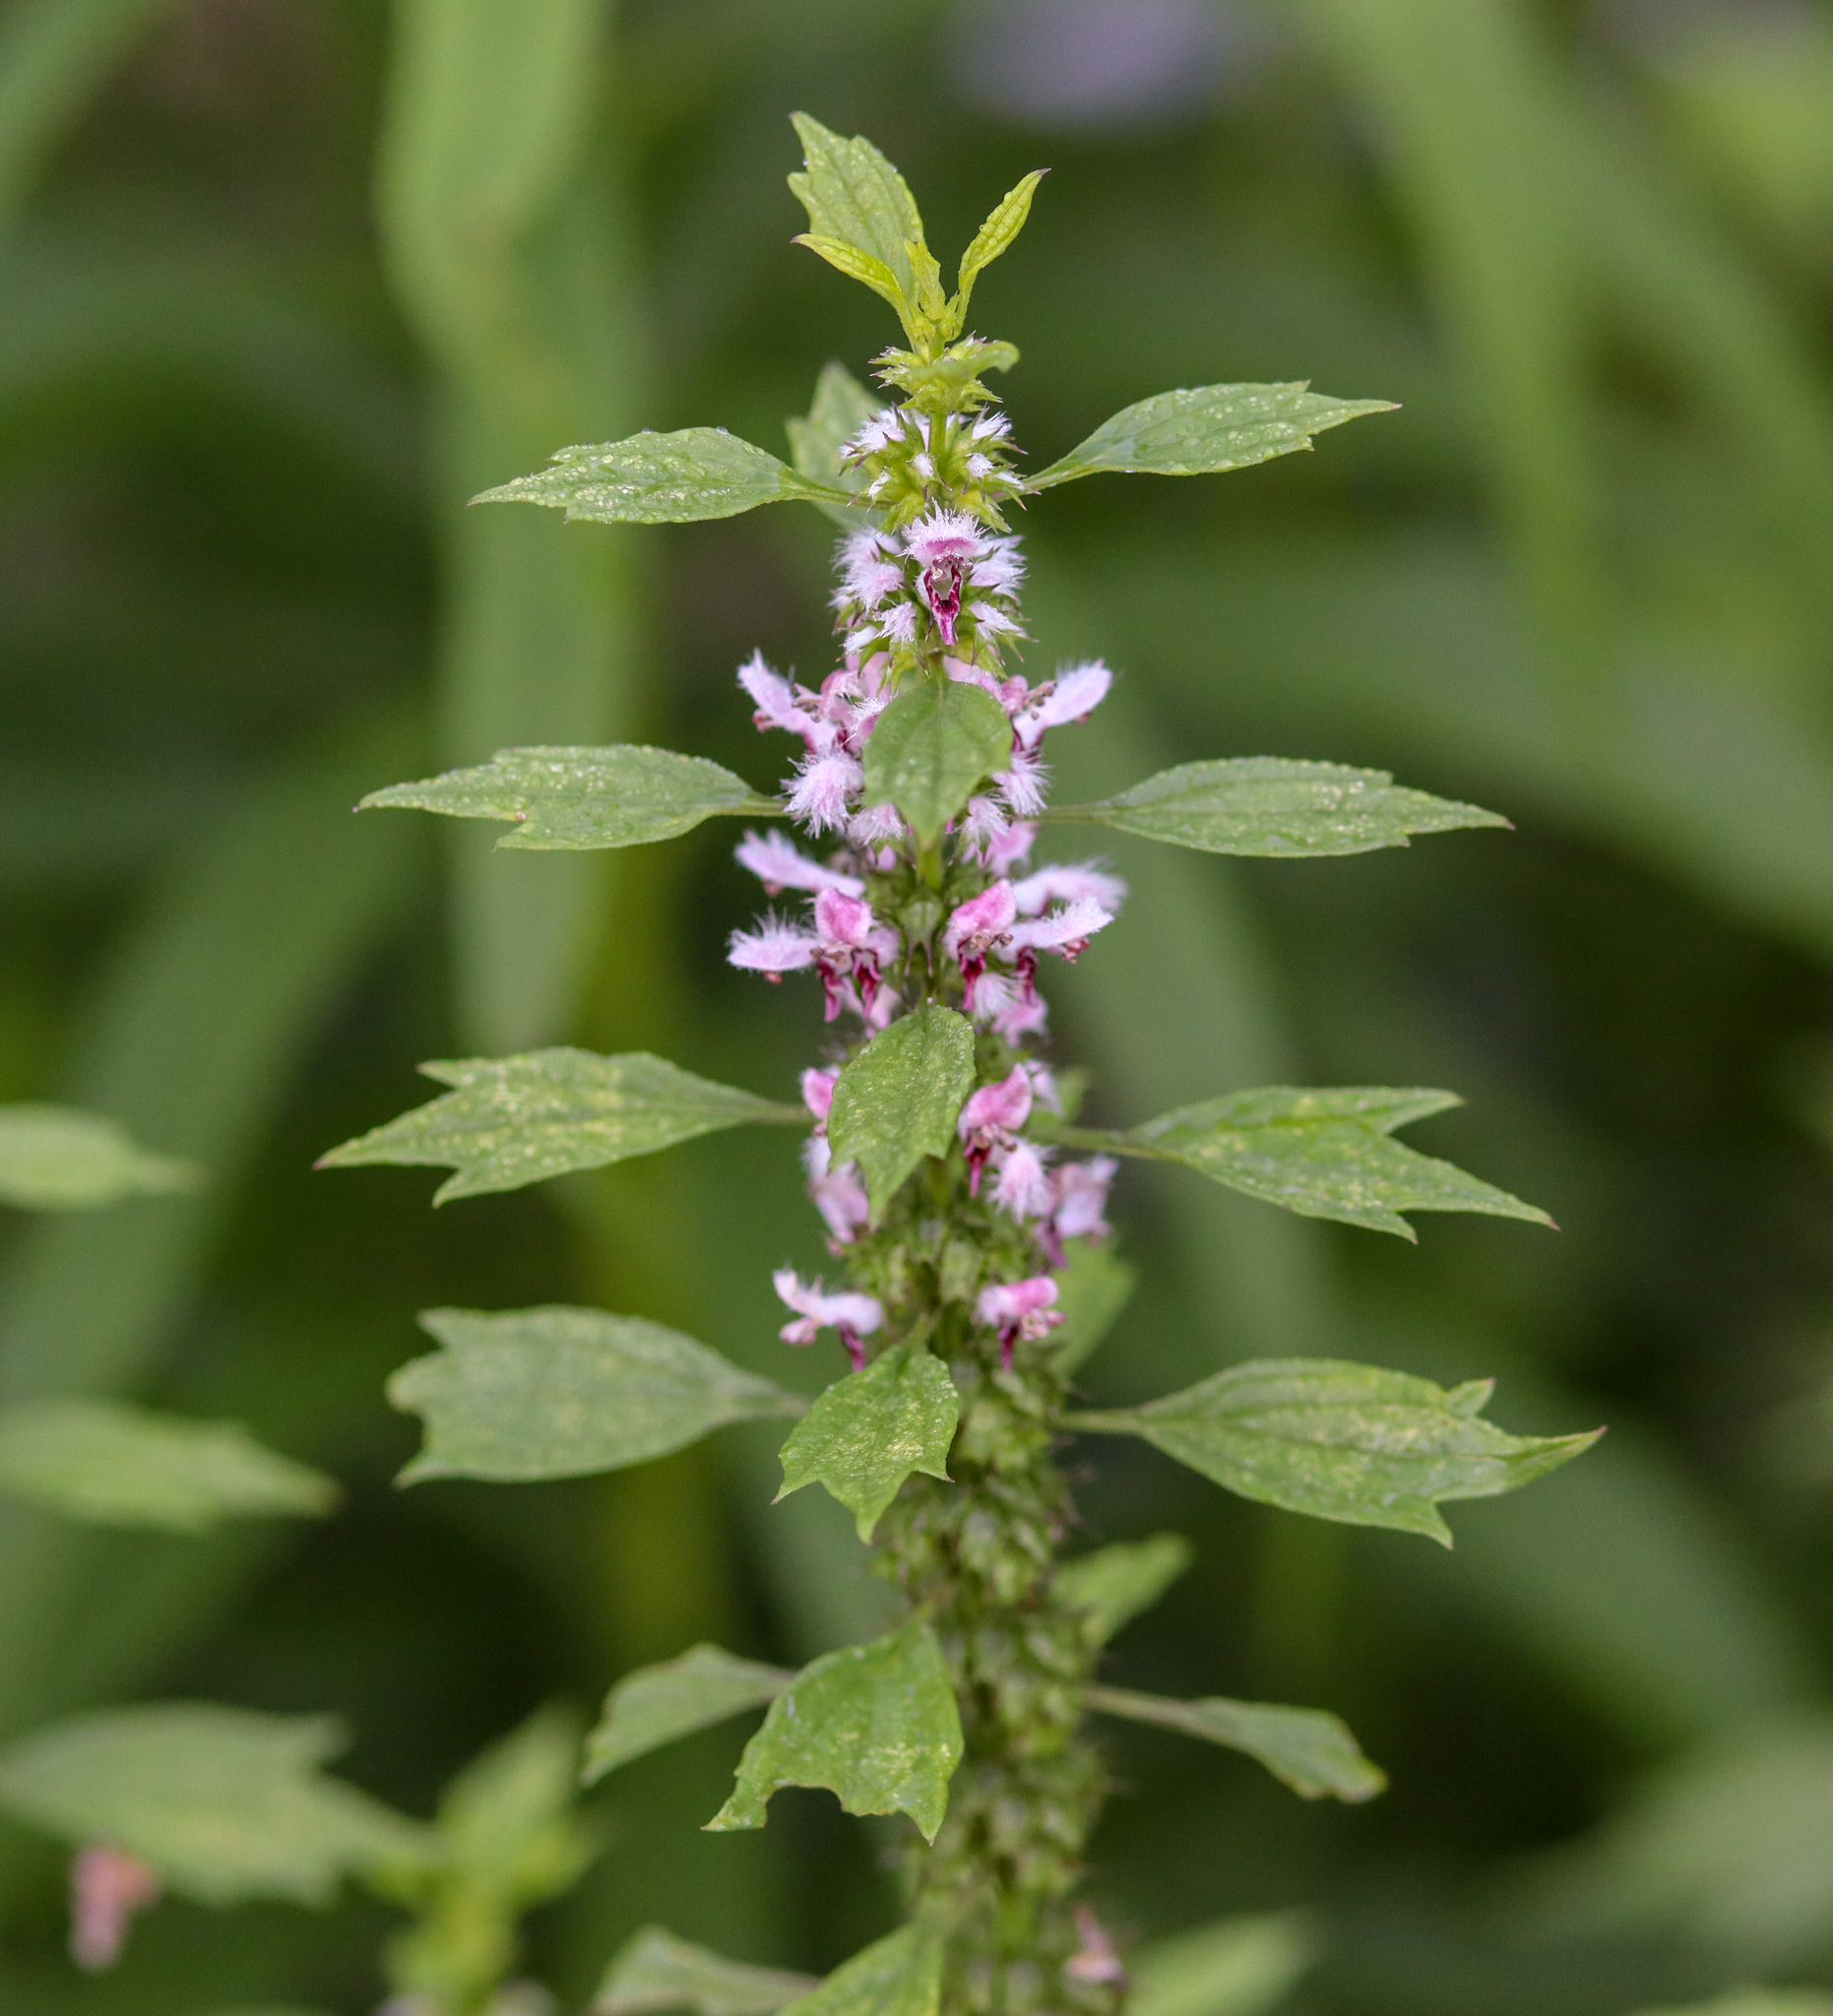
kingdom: Plantae
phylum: Tracheophyta
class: Magnoliopsida
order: Lamiales
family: Lamiaceae
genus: Leonurus
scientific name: Leonurus cardiaca
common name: Motherwort
